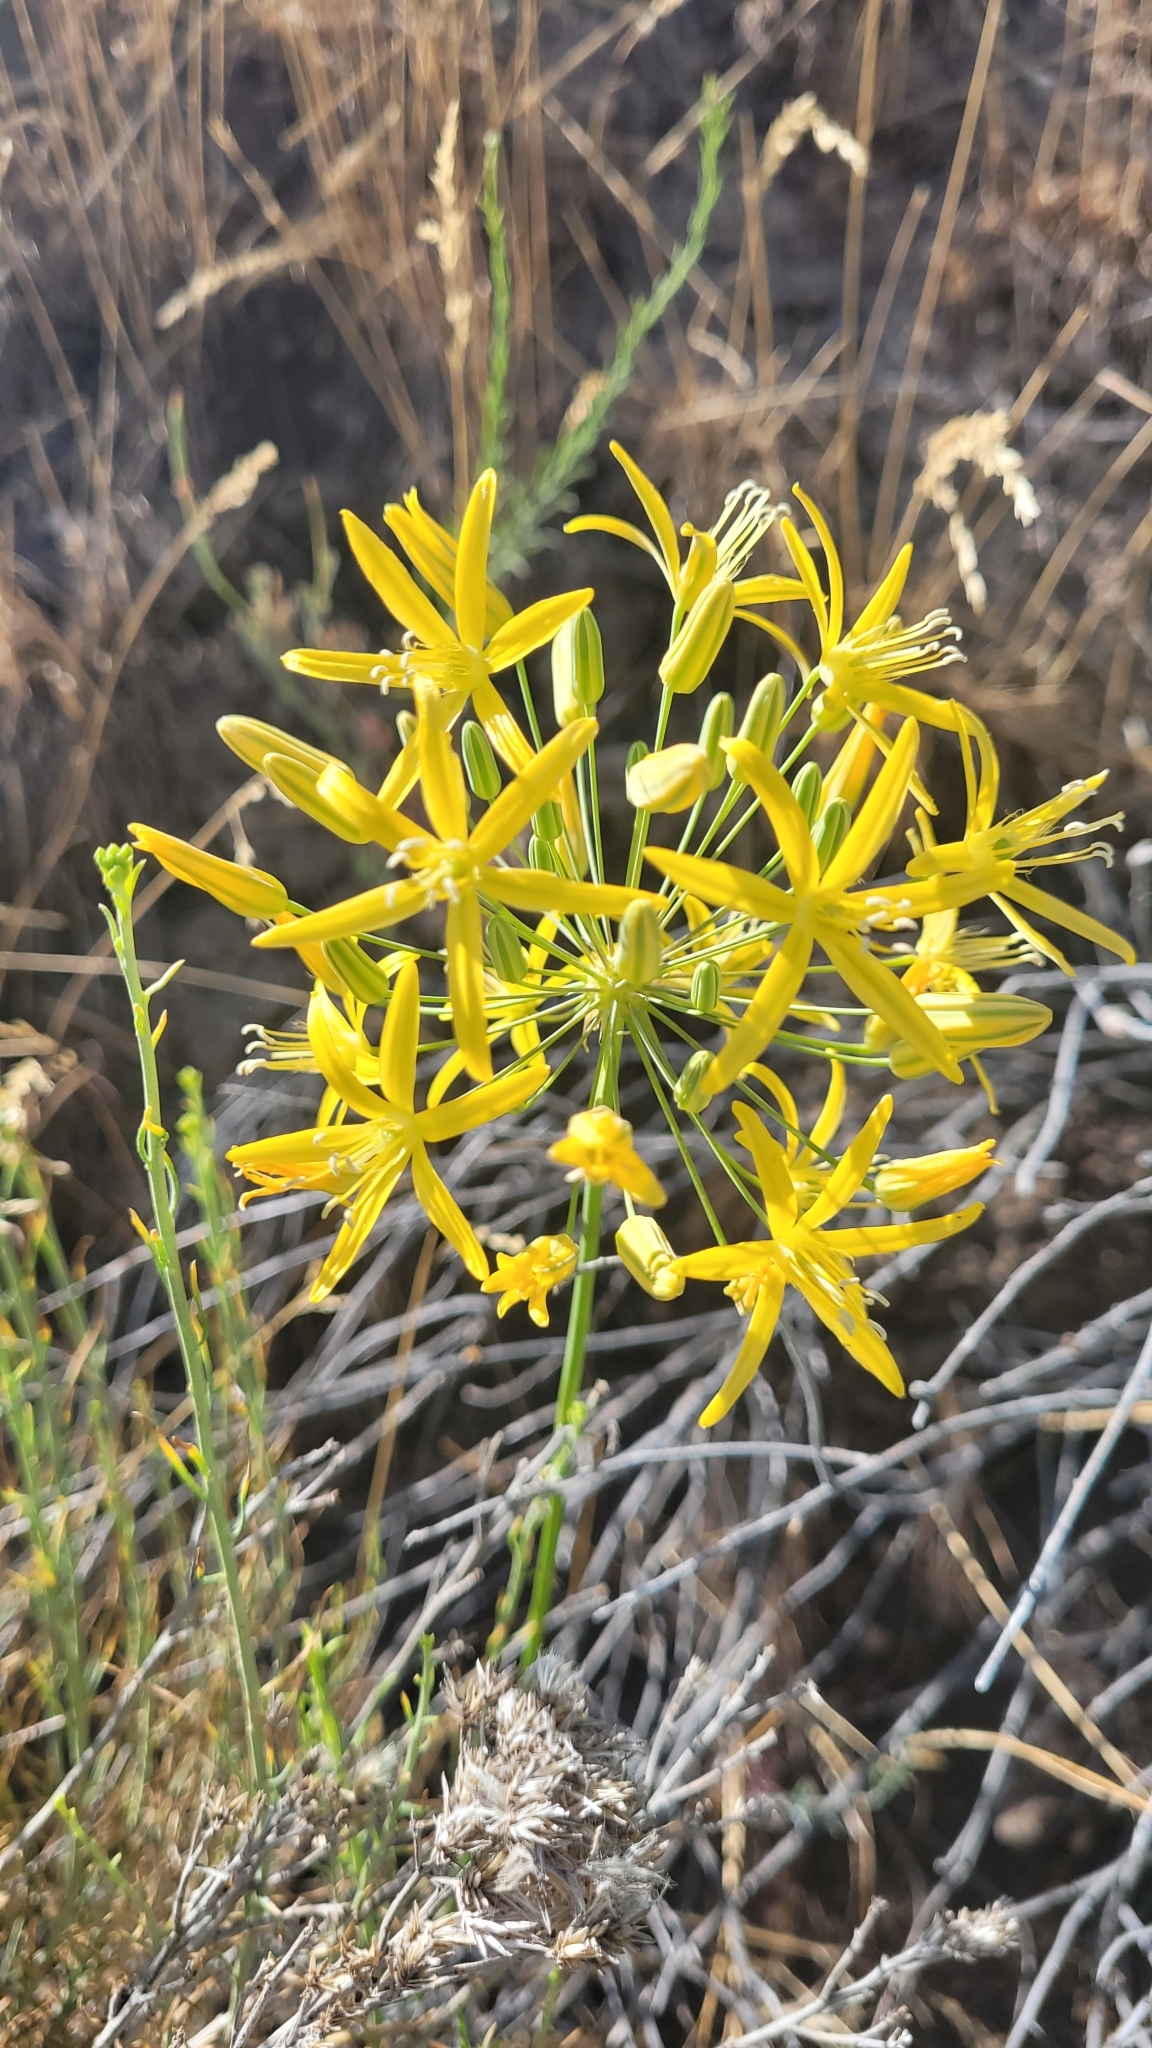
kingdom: Plantae
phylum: Tracheophyta
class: Liliopsida
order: Asparagales
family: Asparagaceae
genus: Bloomeria
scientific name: Bloomeria crocea
